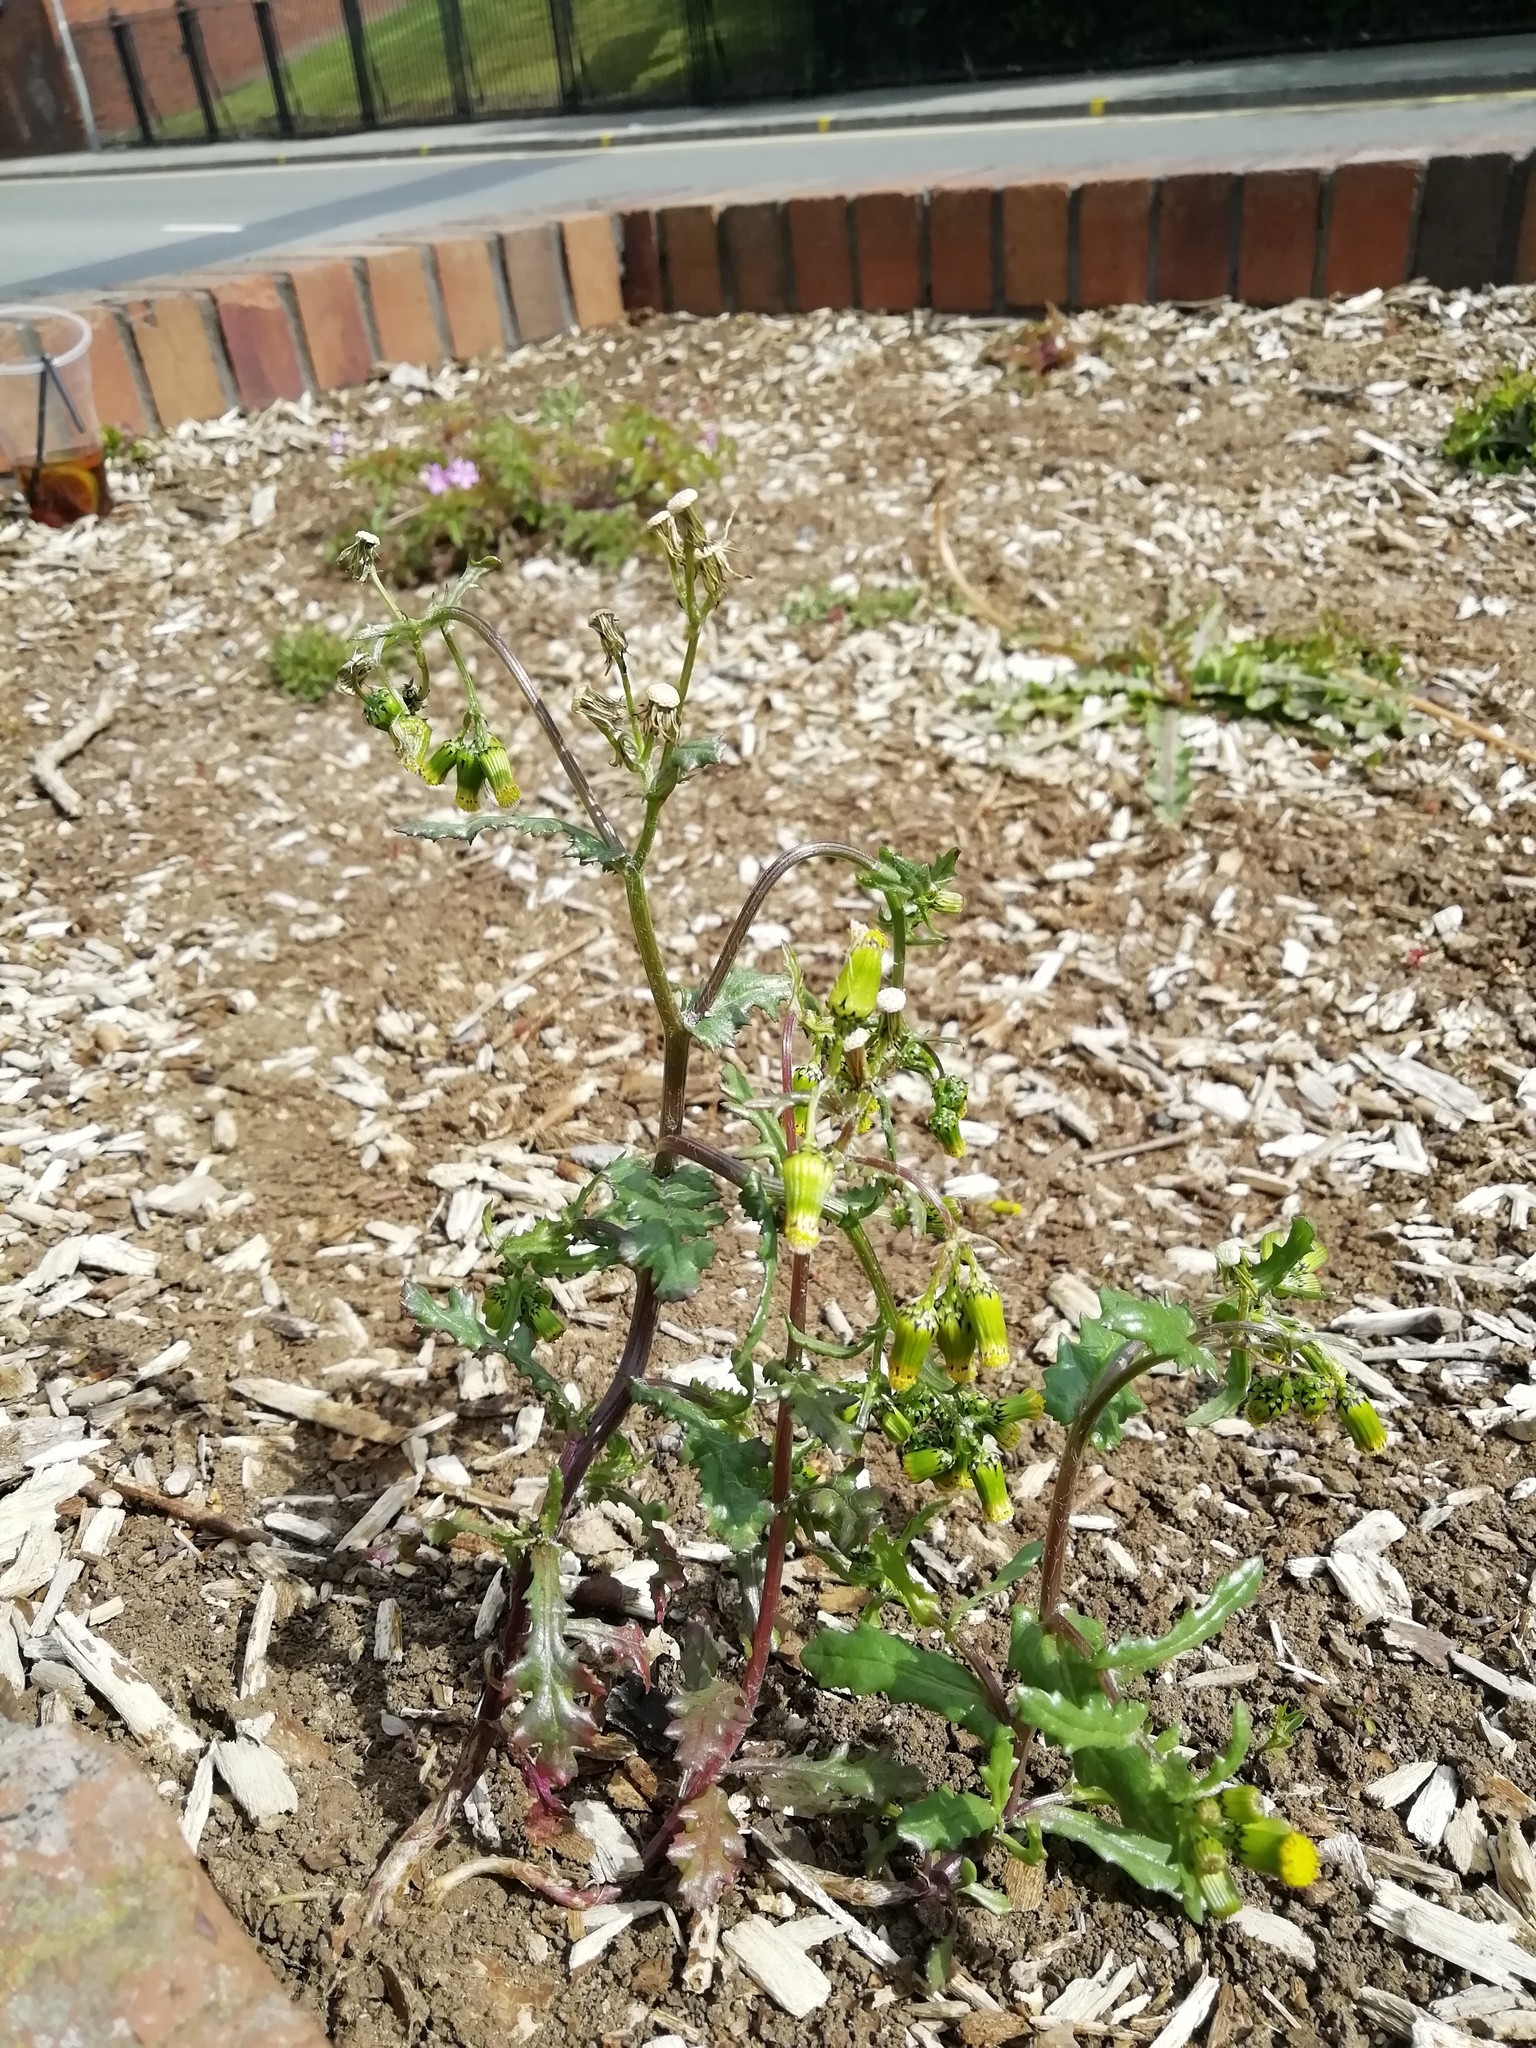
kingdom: Plantae
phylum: Tracheophyta
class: Magnoliopsida
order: Asterales
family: Asteraceae
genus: Senecio
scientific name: Senecio vulgaris
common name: Old-man-in-the-spring
